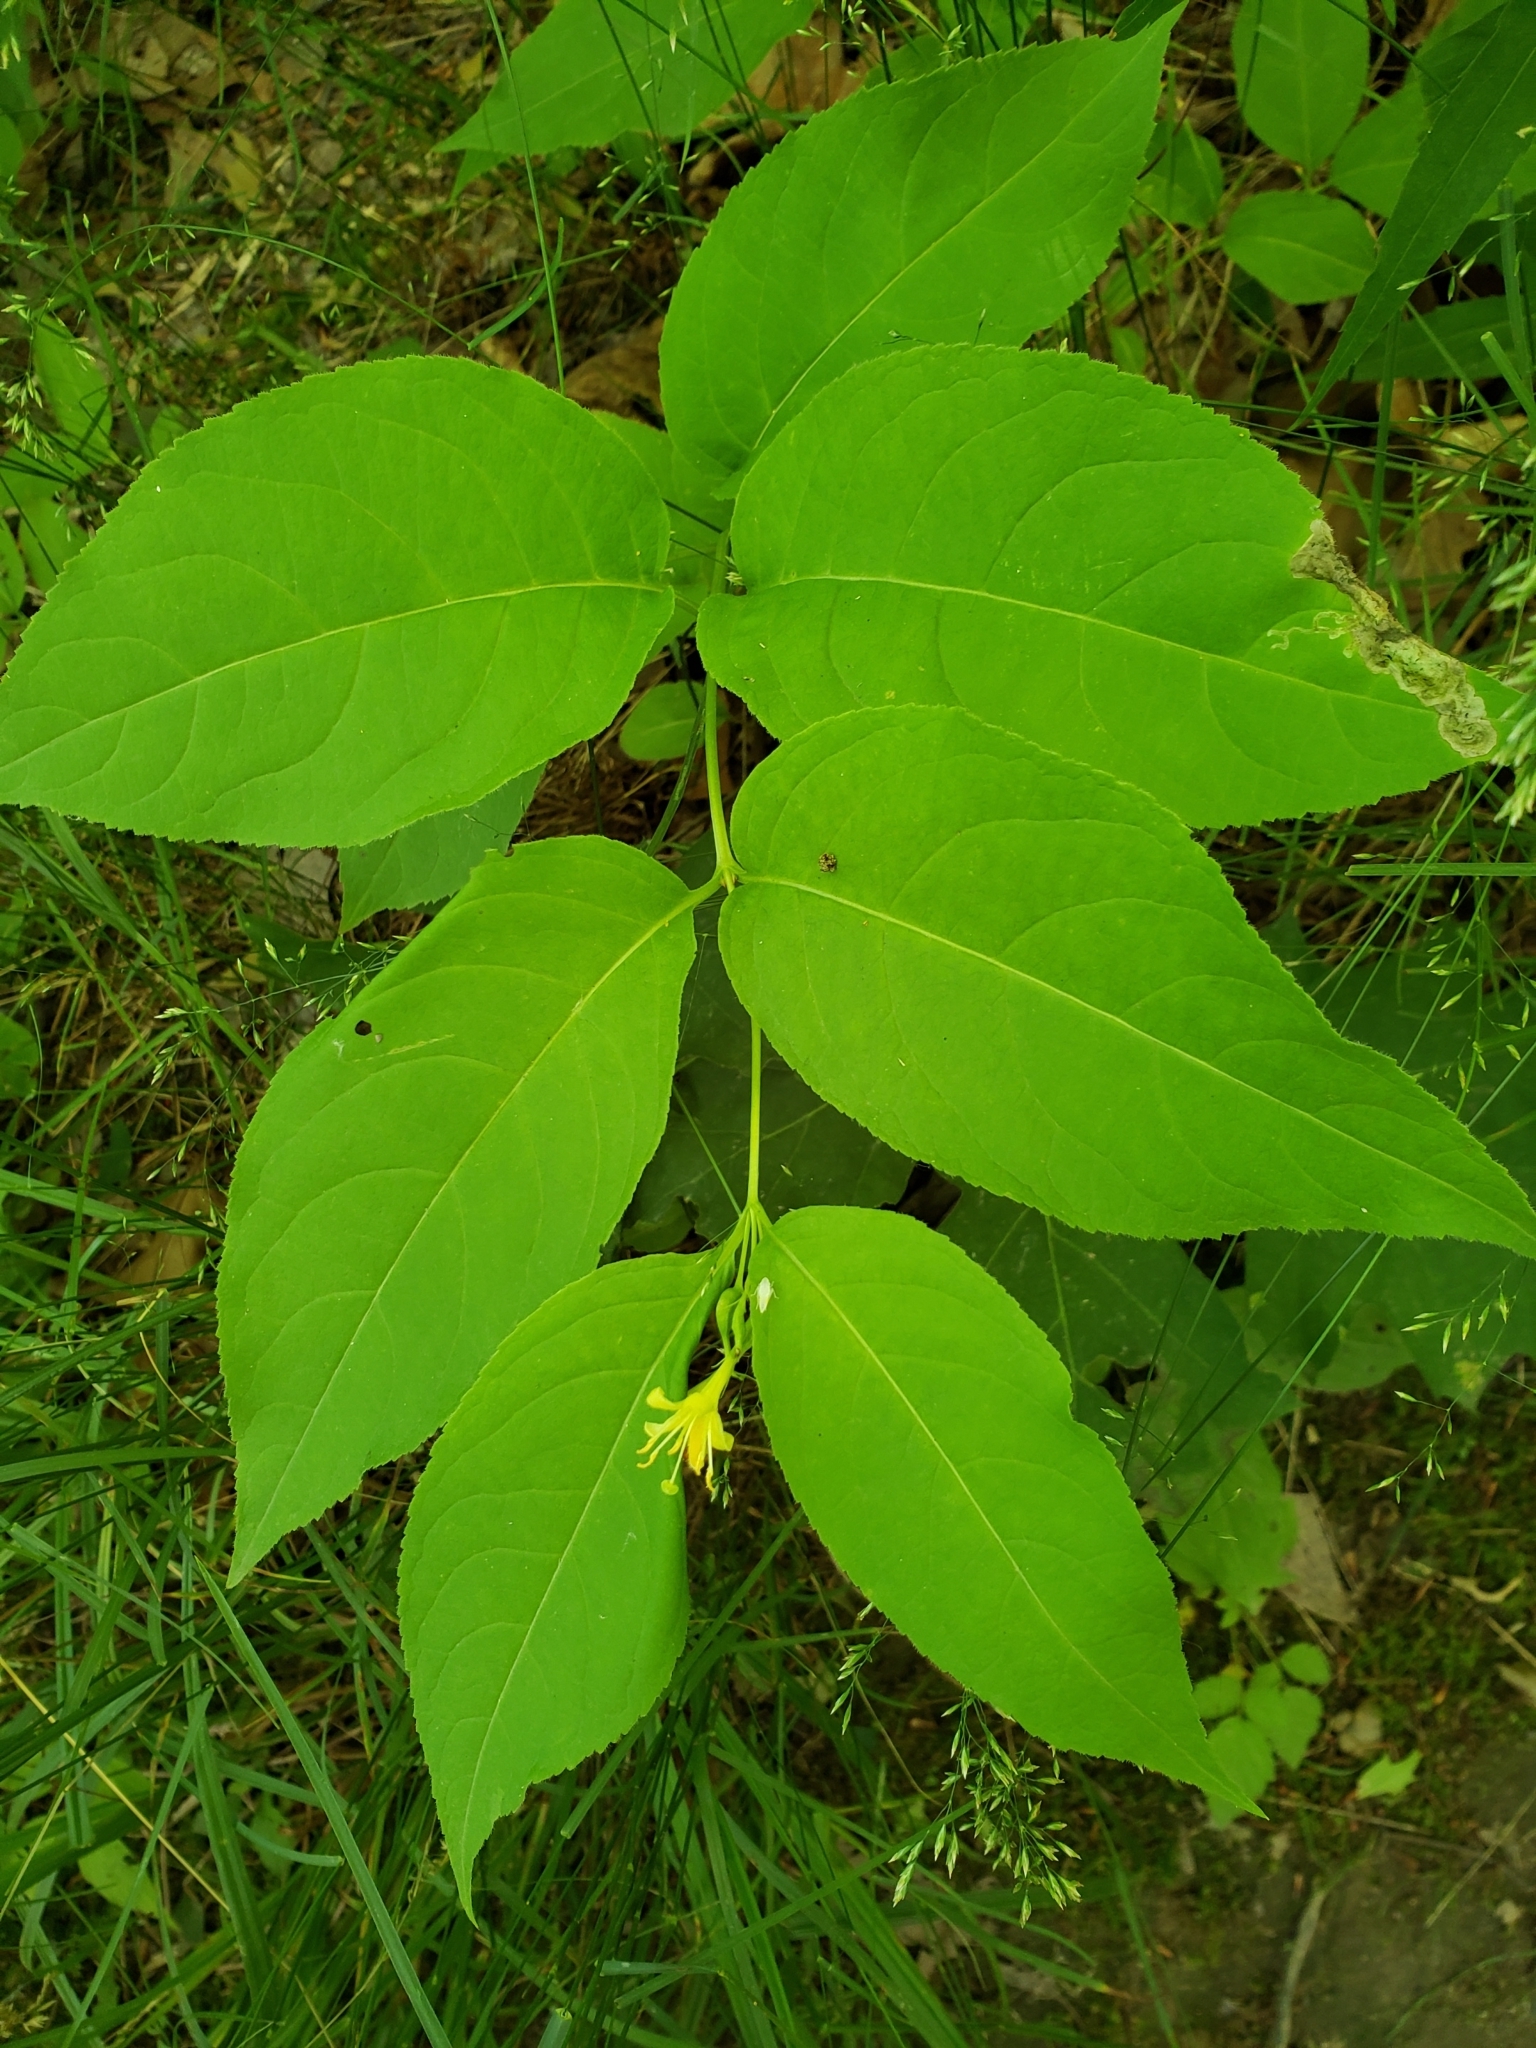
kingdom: Plantae
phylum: Tracheophyta
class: Magnoliopsida
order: Dipsacales
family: Caprifoliaceae
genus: Diervilla
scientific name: Diervilla lonicera
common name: Bush-honeysuckle
